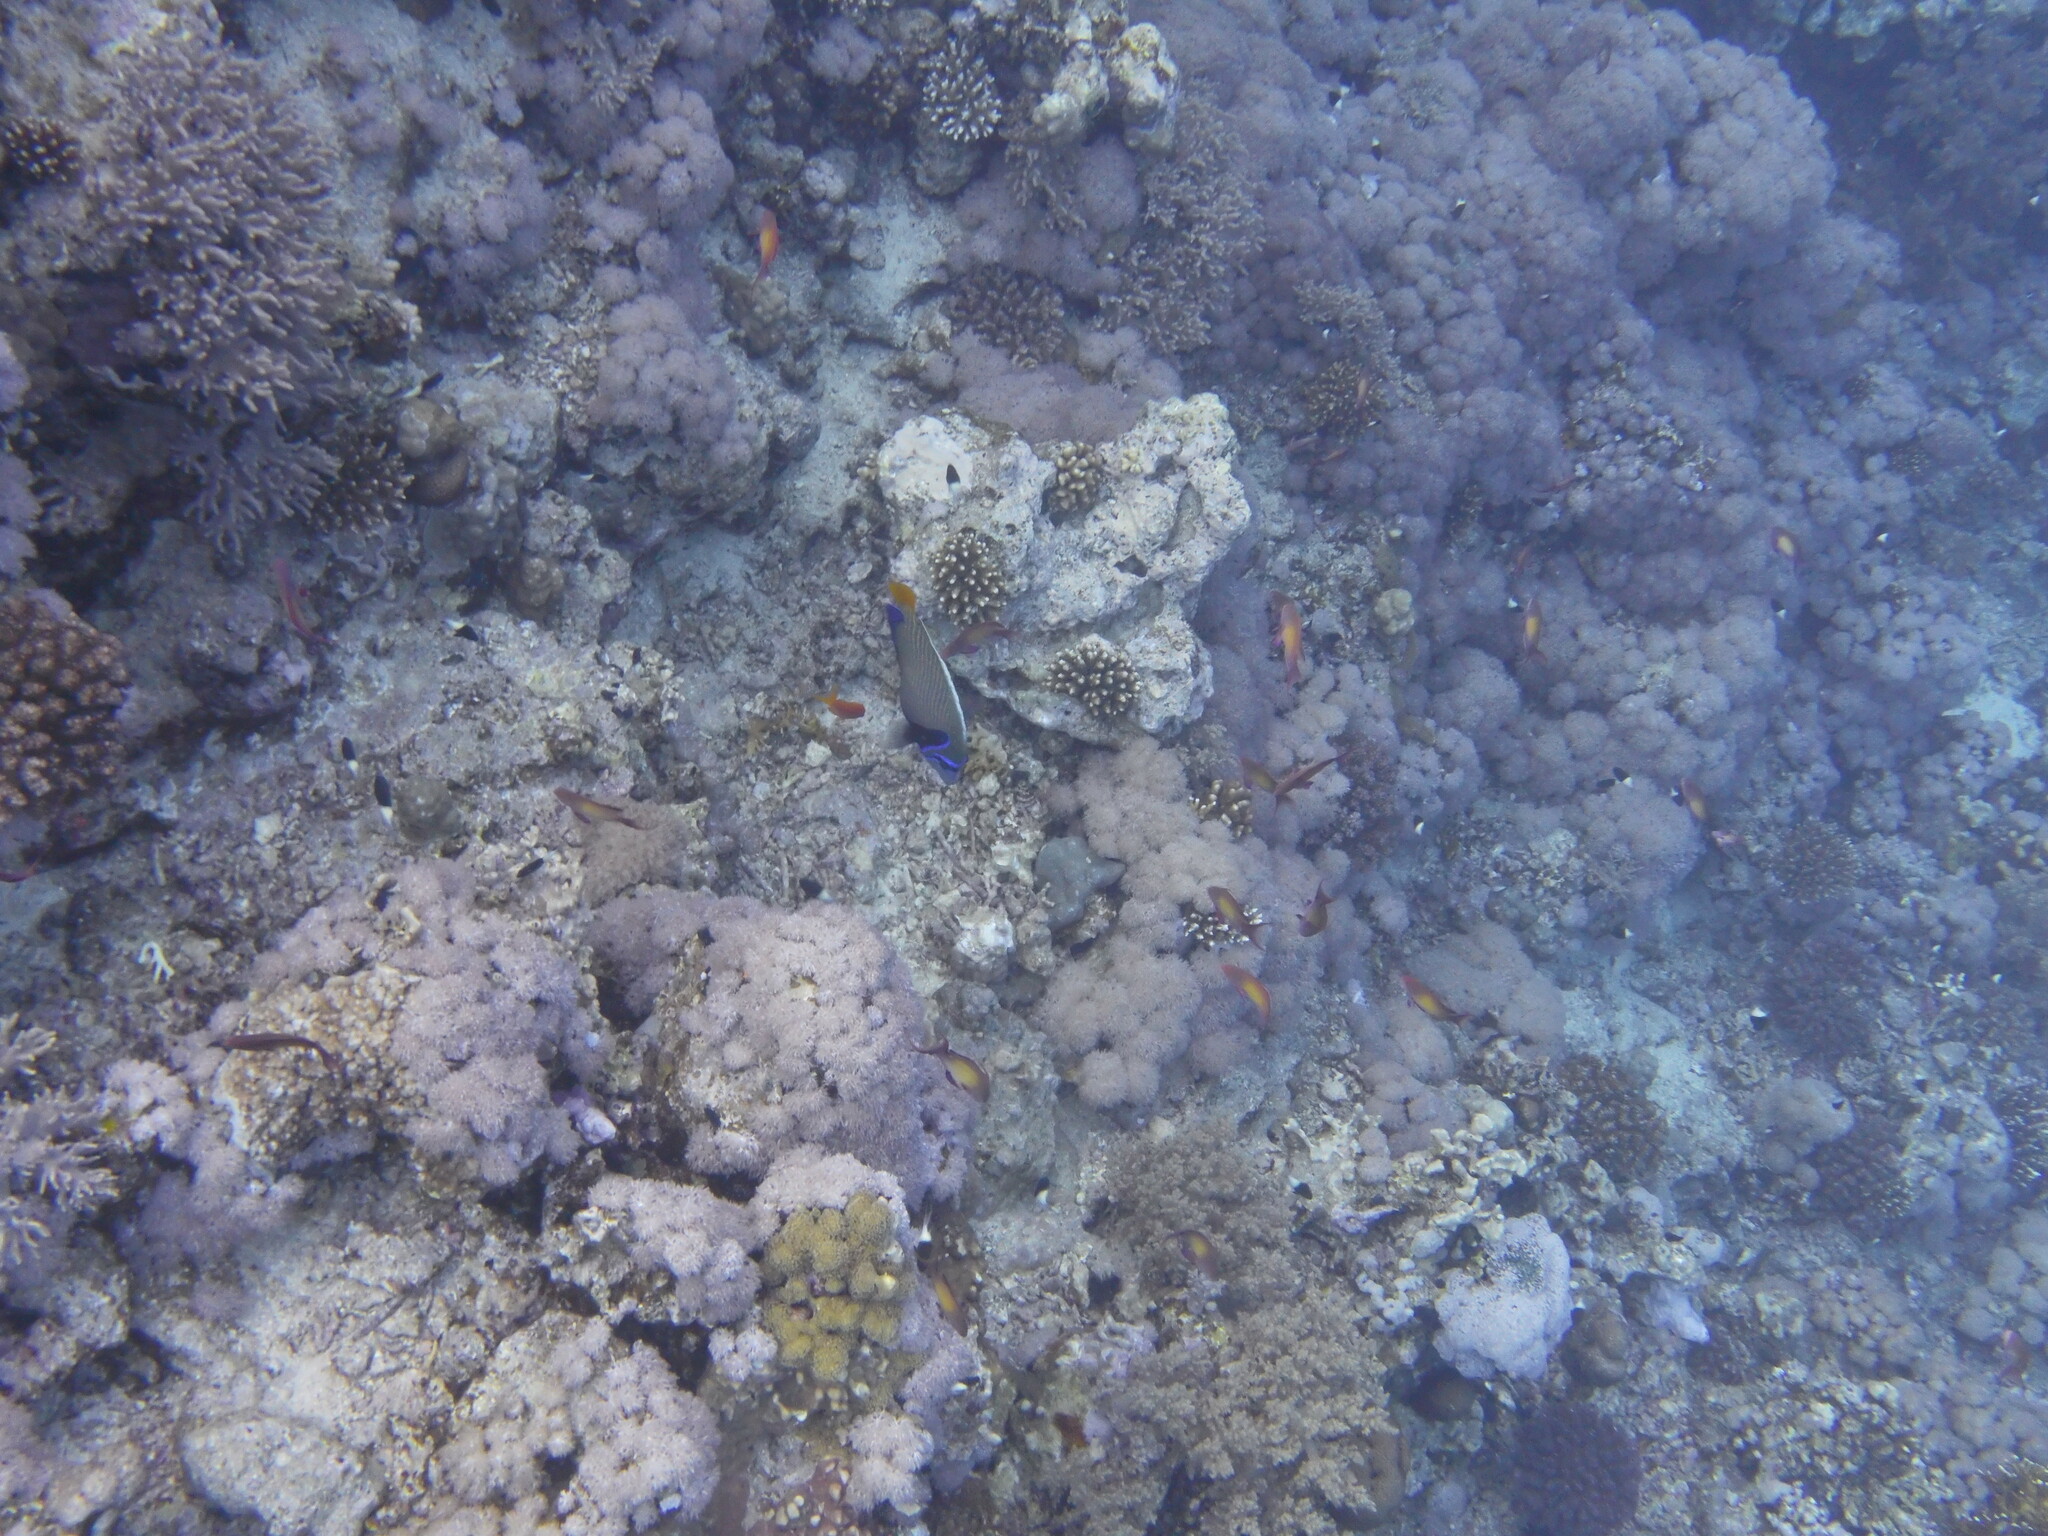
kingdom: Animalia
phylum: Chordata
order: Perciformes
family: Pomacanthidae
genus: Pomacanthus
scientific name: Pomacanthus imperator
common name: Emperor angelfish
